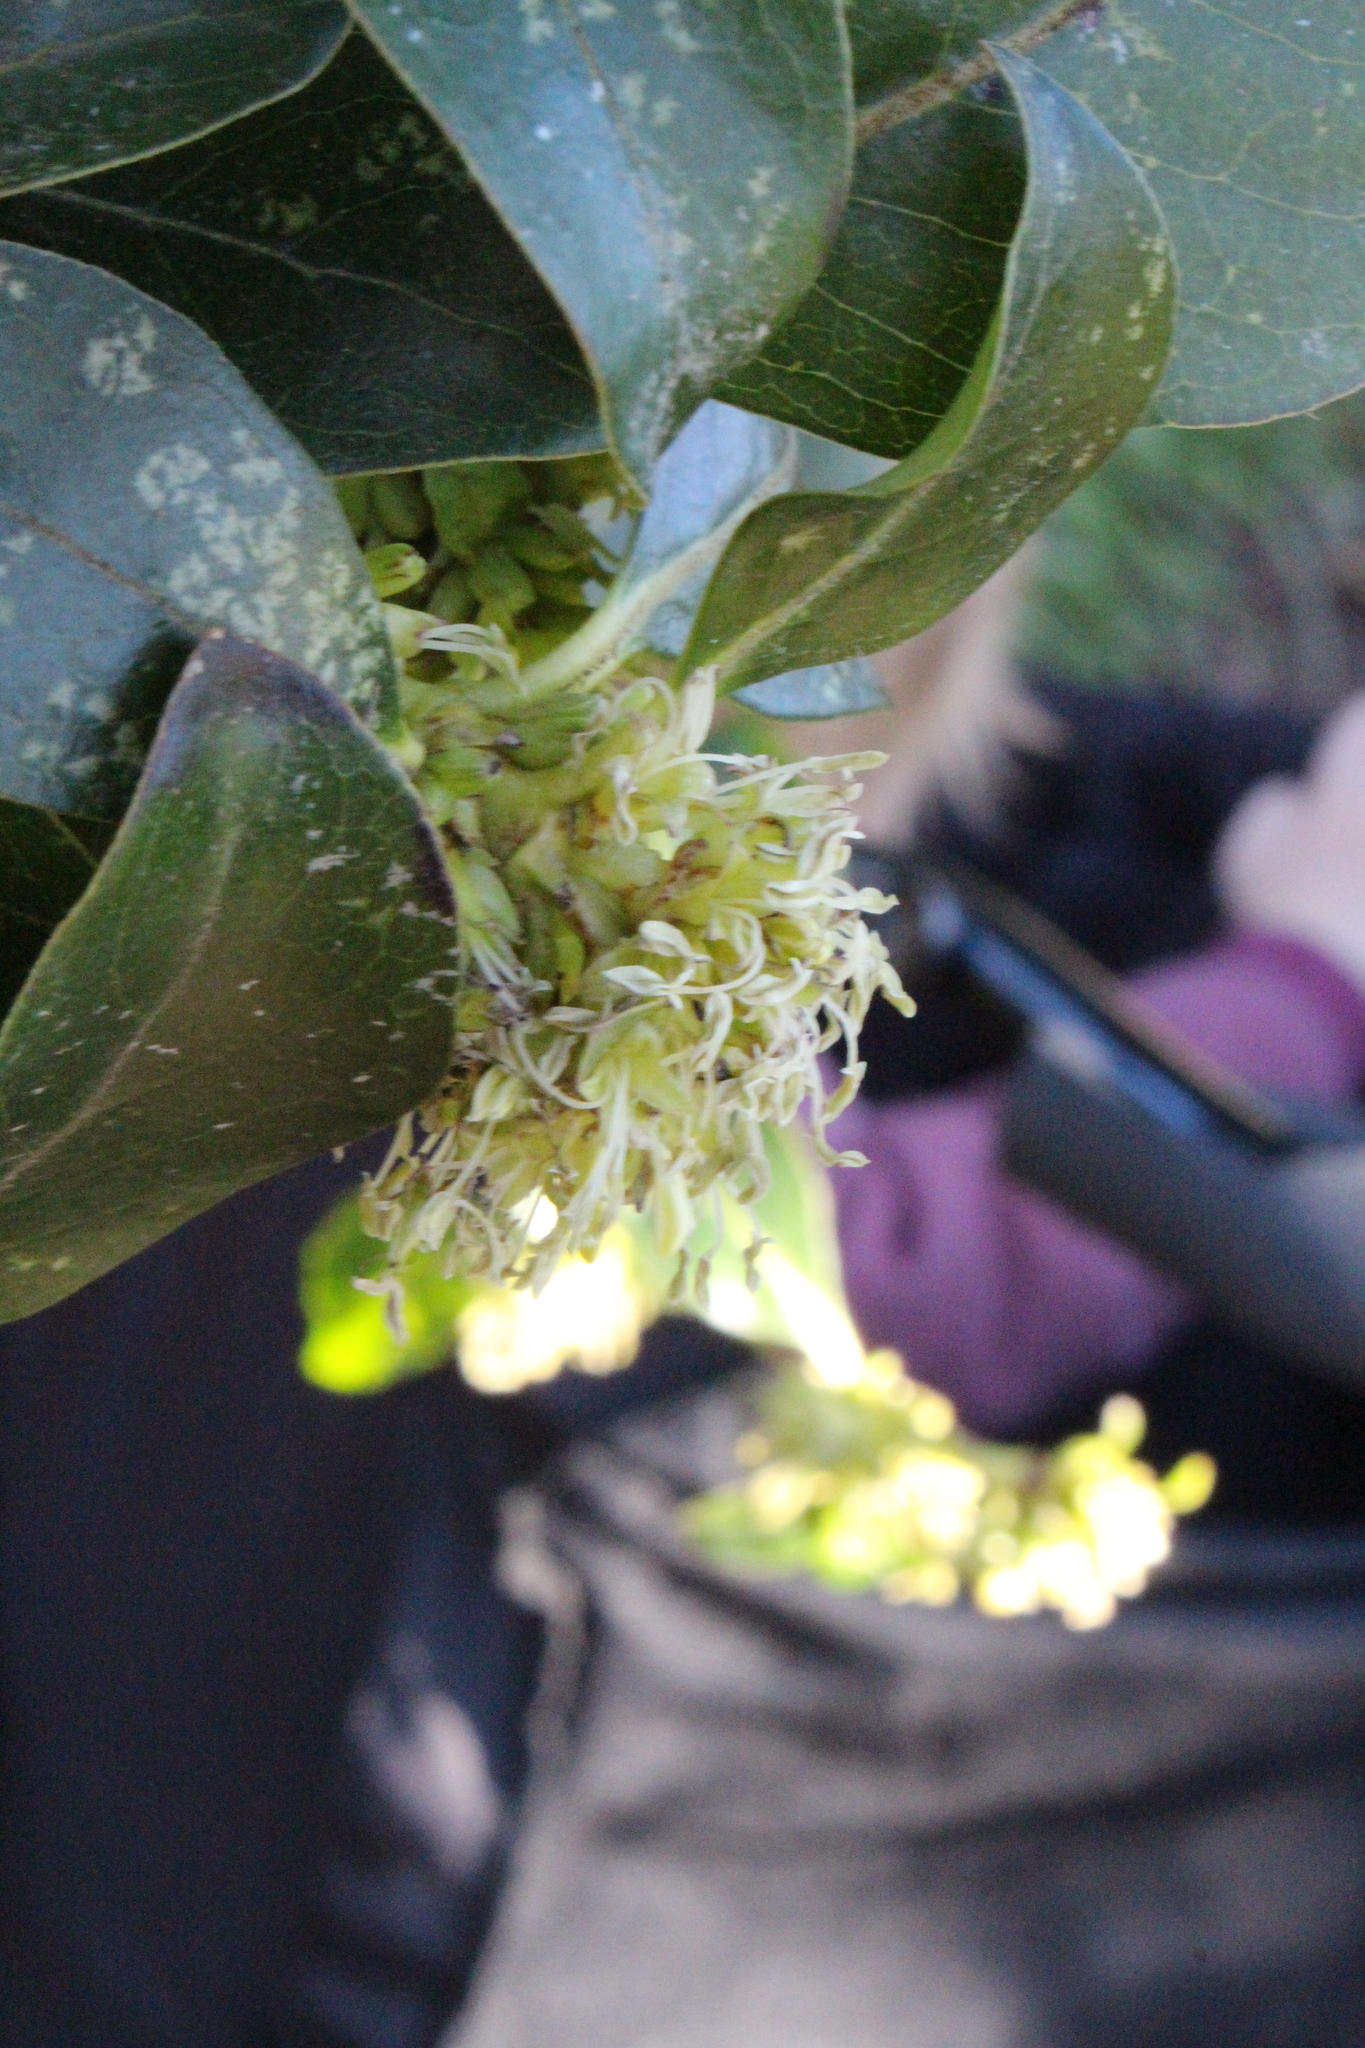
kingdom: Plantae
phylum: Tracheophyta
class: Magnoliopsida
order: Gentianales
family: Rubiaceae
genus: Coprosma
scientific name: Coprosma robusta
